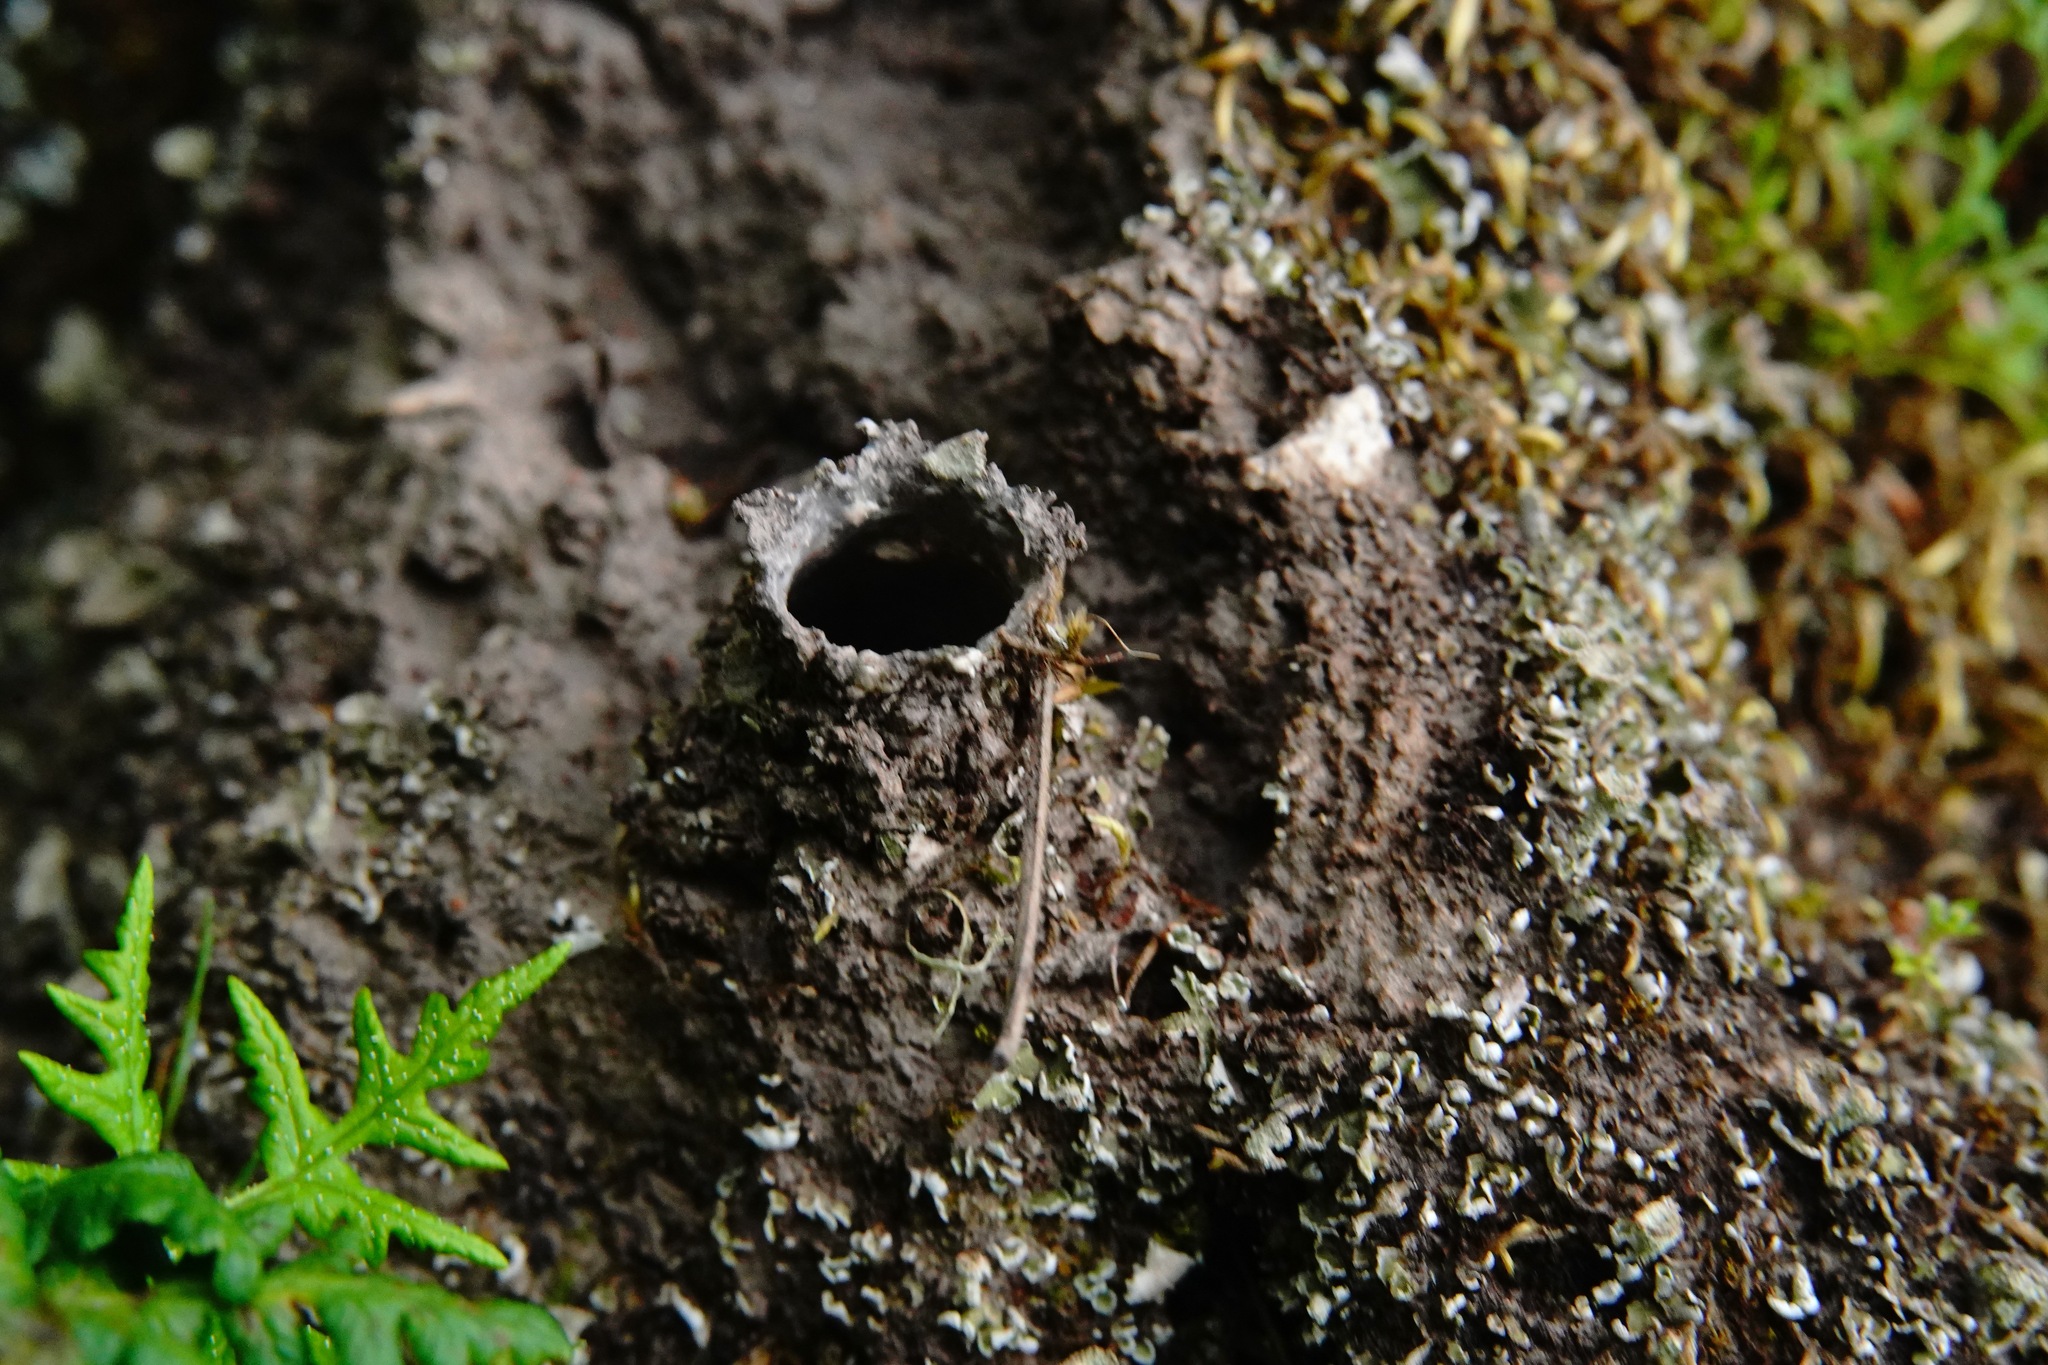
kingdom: Animalia
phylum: Arthropoda
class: Arachnida
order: Araneae
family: Antrodiaetidae
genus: Atypoides
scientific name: Atypoides riversi
